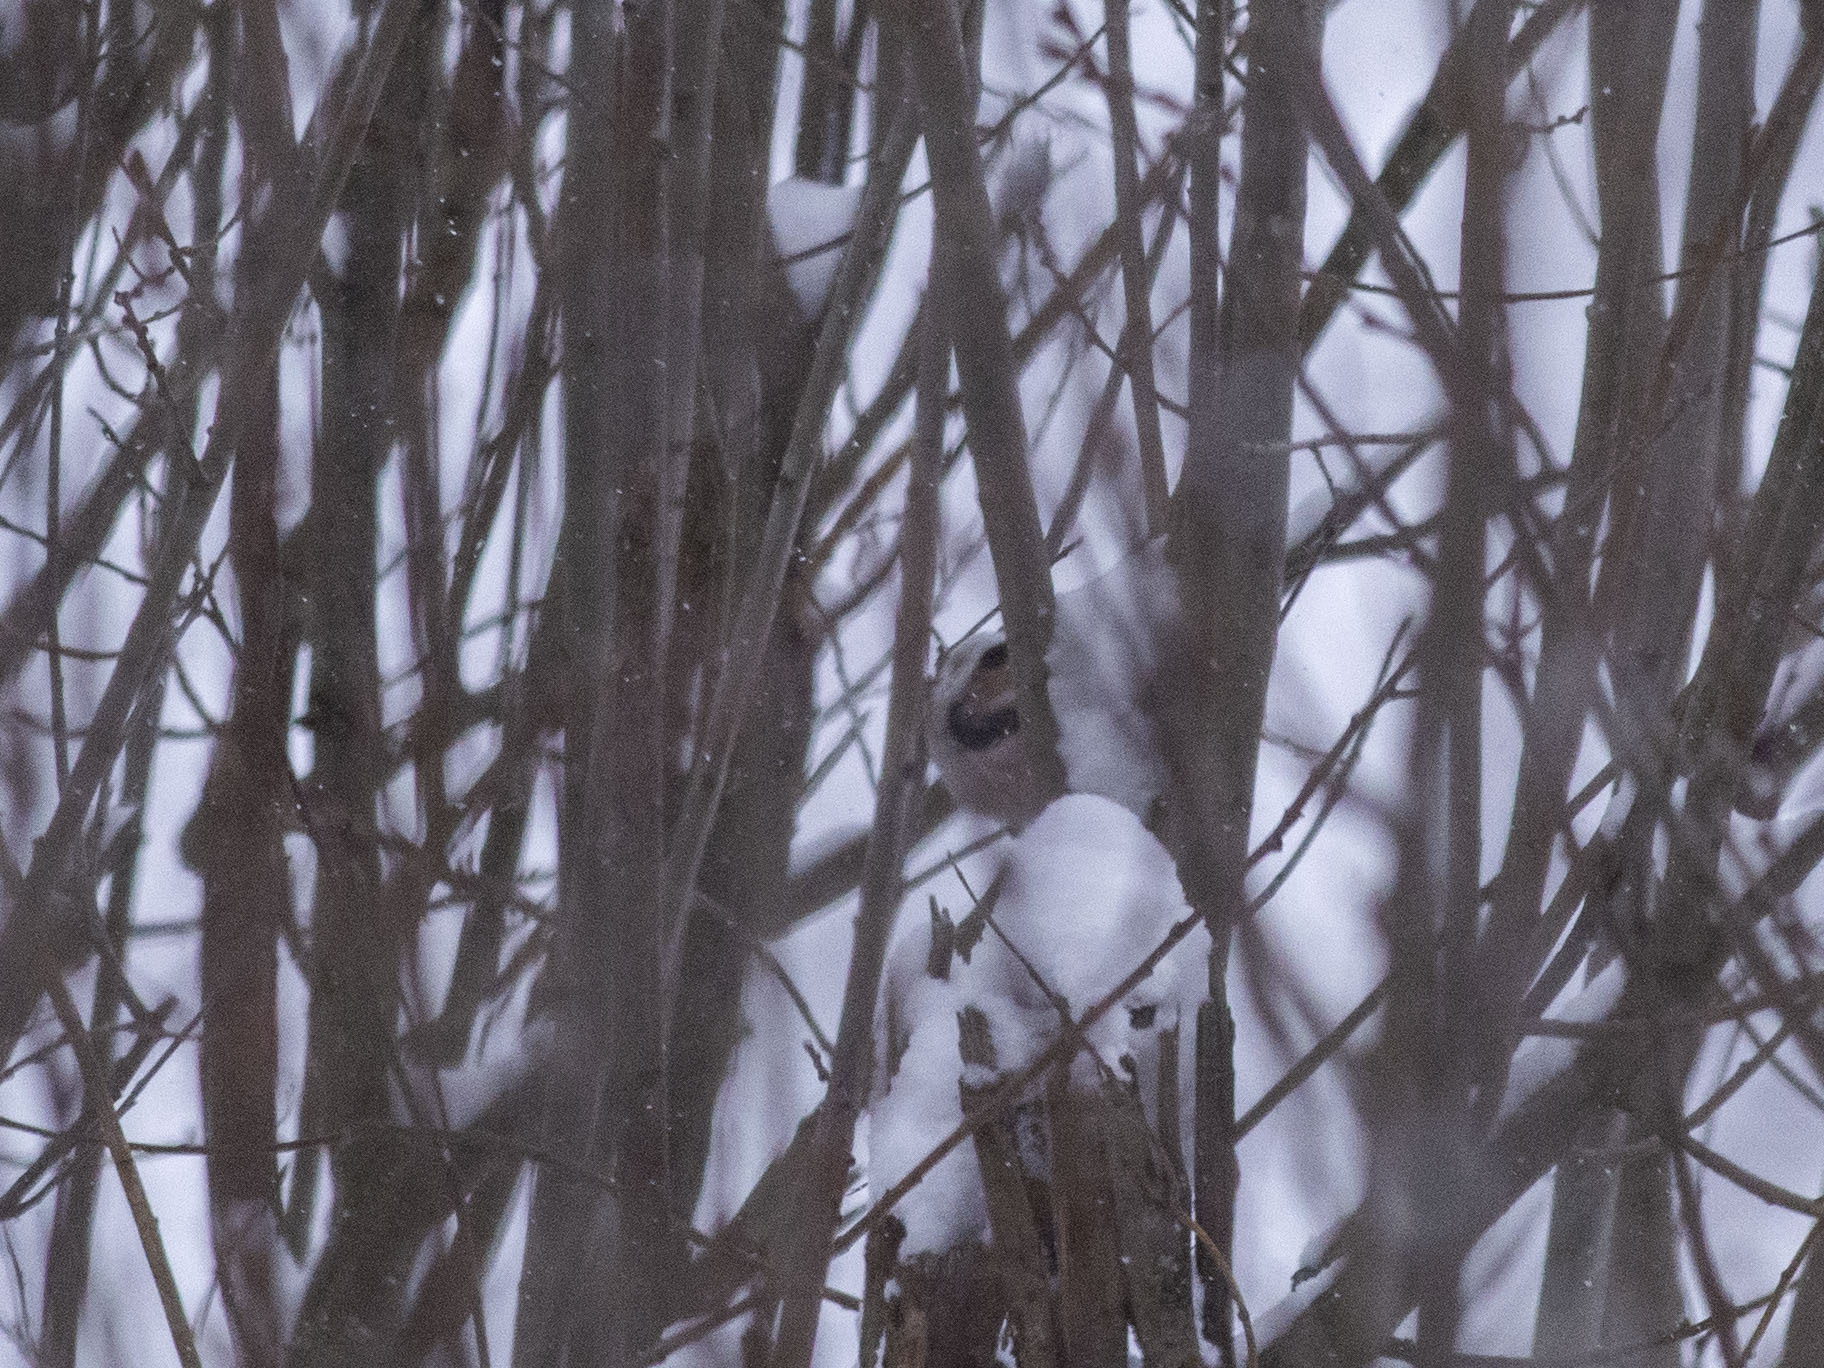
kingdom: Animalia
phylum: Chordata
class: Aves
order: Passeriformes
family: Aegithalidae
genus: Aegithalos
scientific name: Aegithalos caudatus
